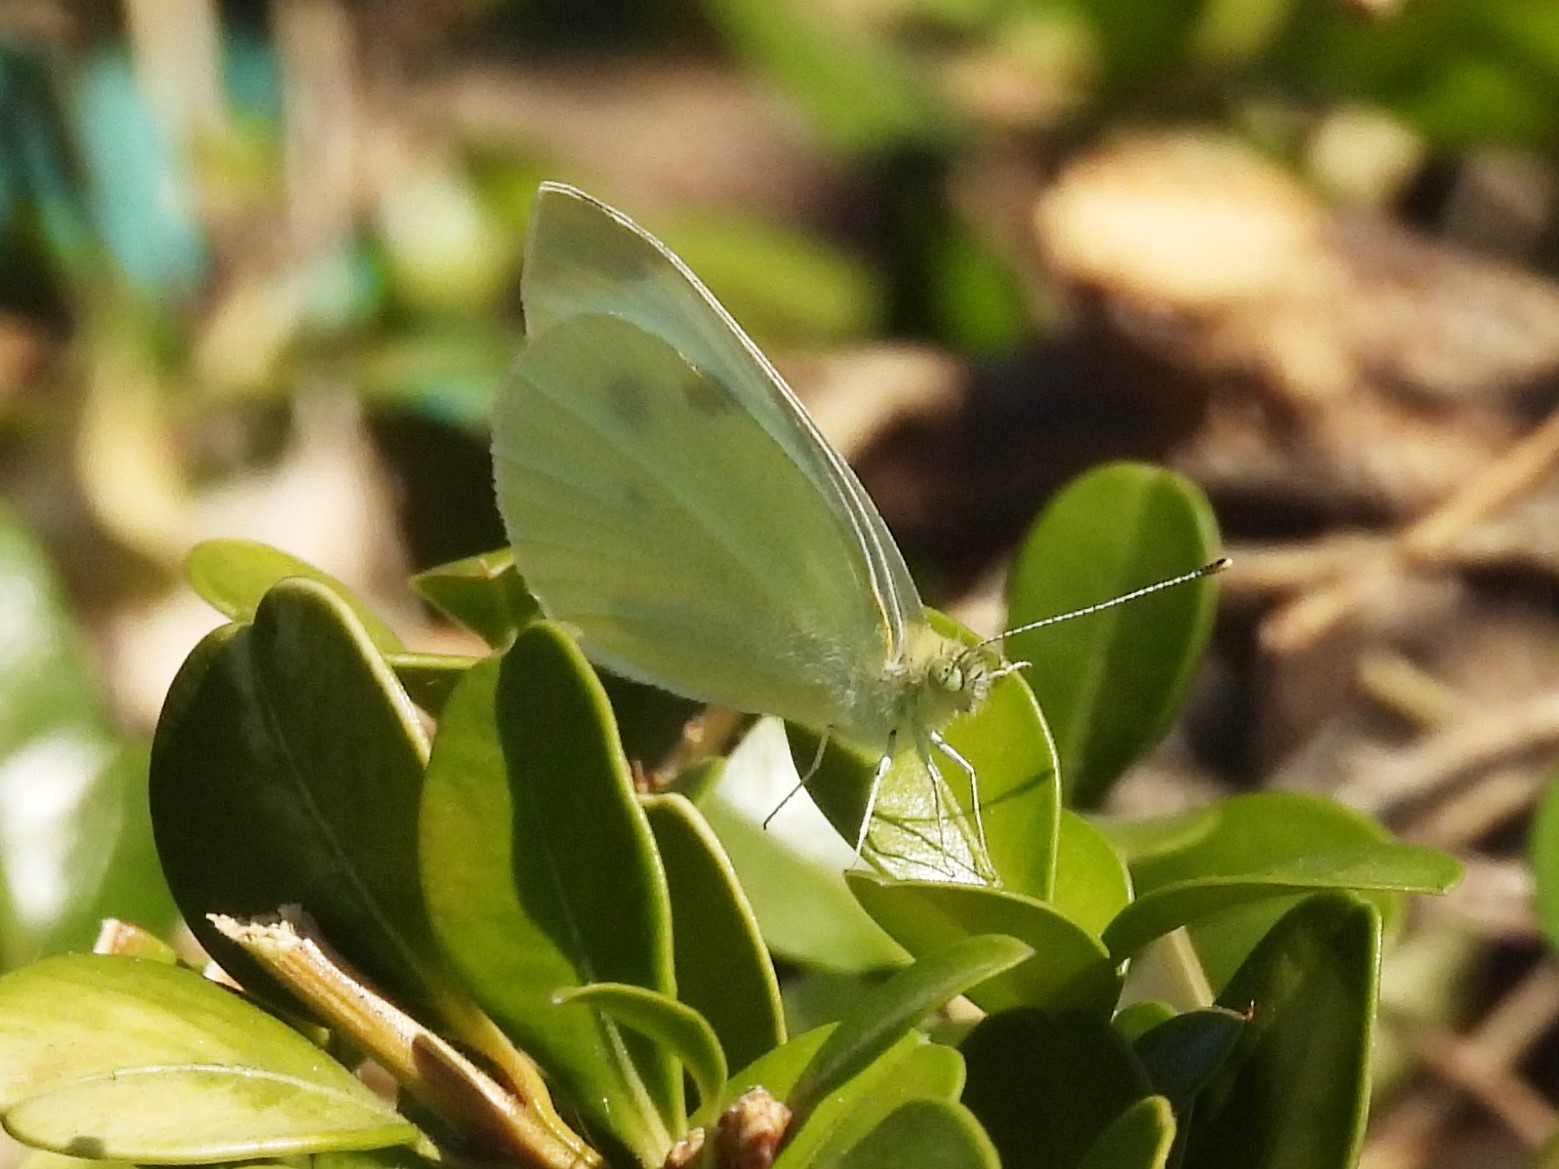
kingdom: Animalia
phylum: Arthropoda
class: Insecta
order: Lepidoptera
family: Pieridae
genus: Pieris
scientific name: Pieris rapae
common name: Small white
